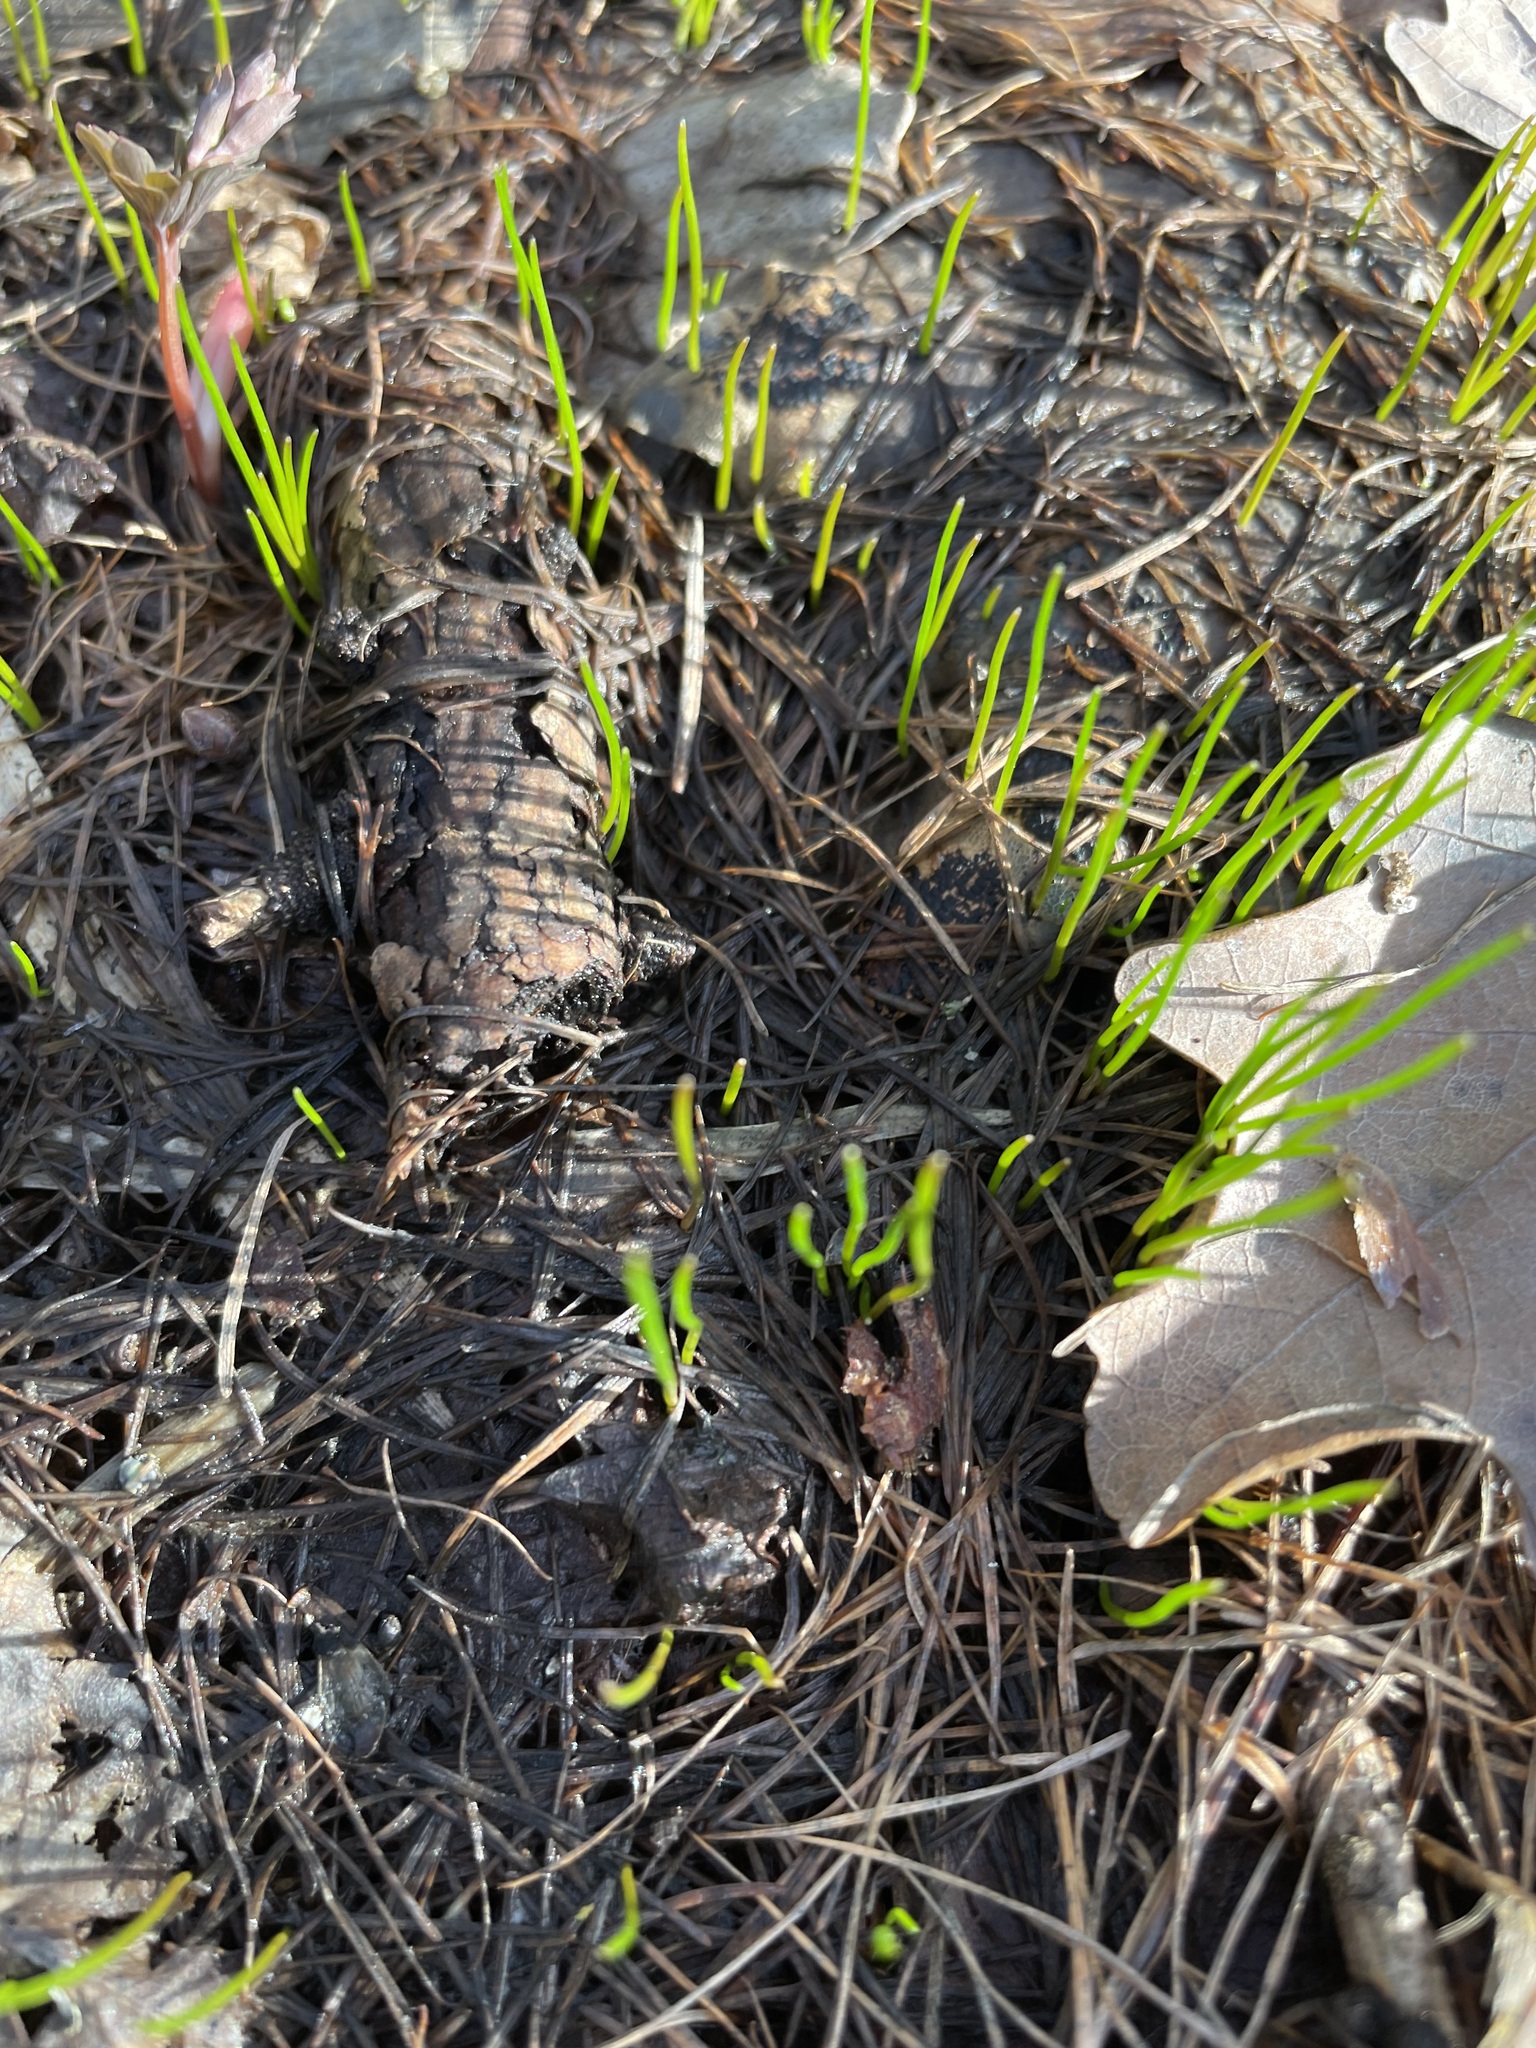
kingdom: Plantae
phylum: Tracheophyta
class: Liliopsida
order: Liliales
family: Liliaceae
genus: Gagea
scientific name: Gagea minima
